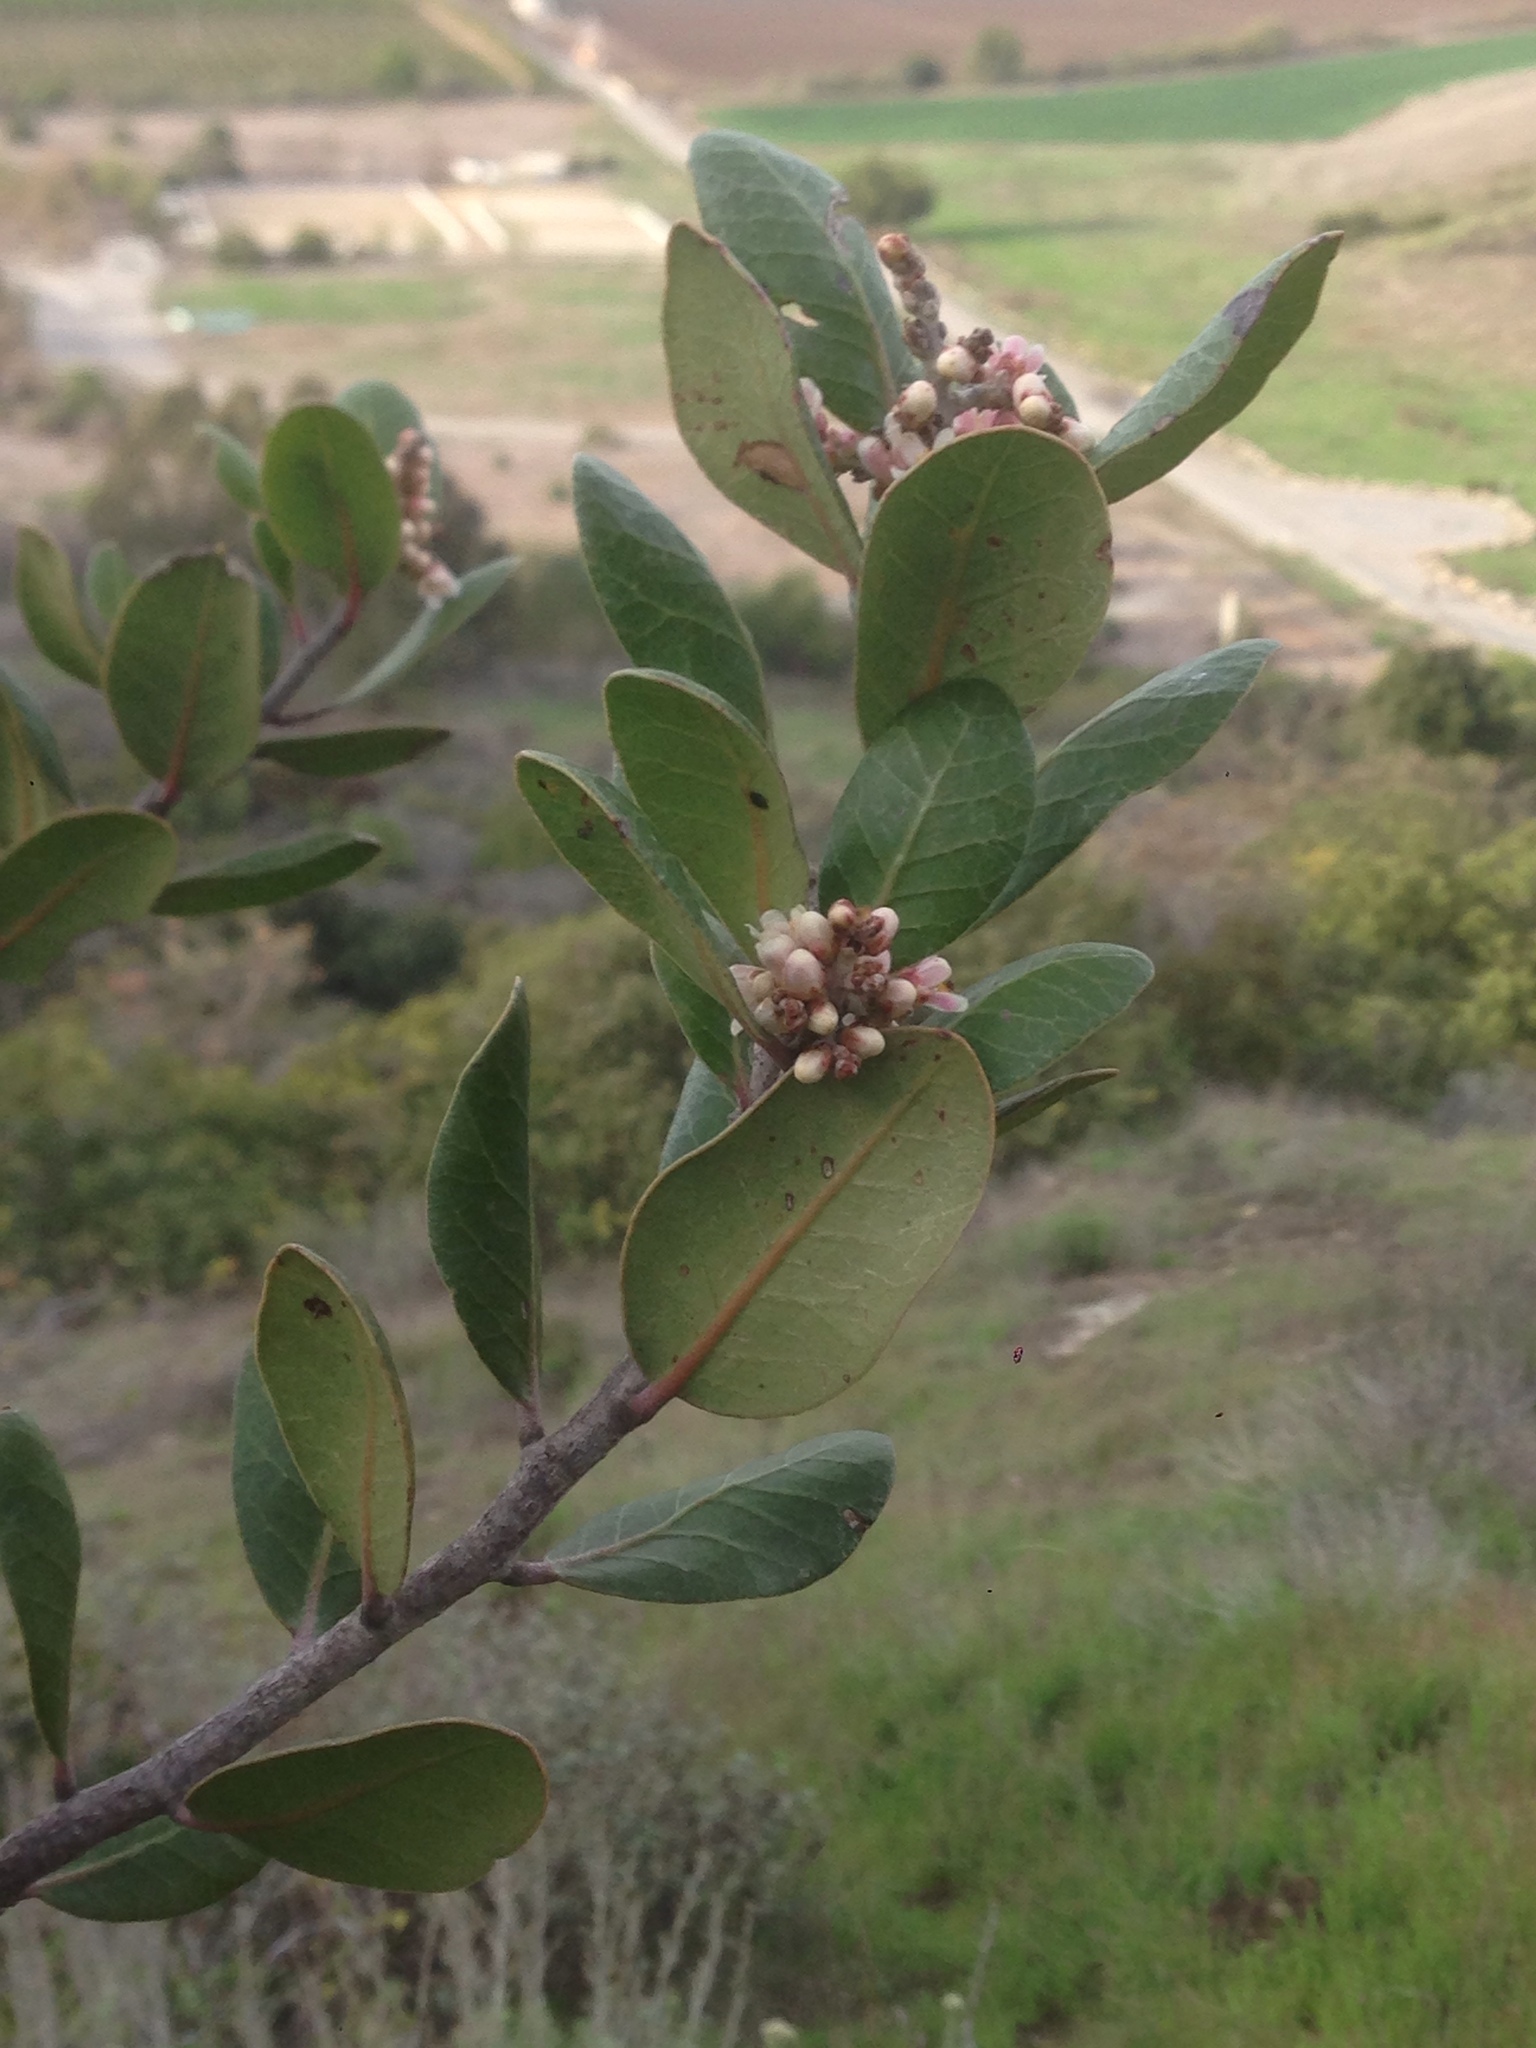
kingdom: Plantae
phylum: Tracheophyta
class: Magnoliopsida
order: Sapindales
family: Anacardiaceae
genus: Rhus
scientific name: Rhus integrifolia
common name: Lemonade sumac
